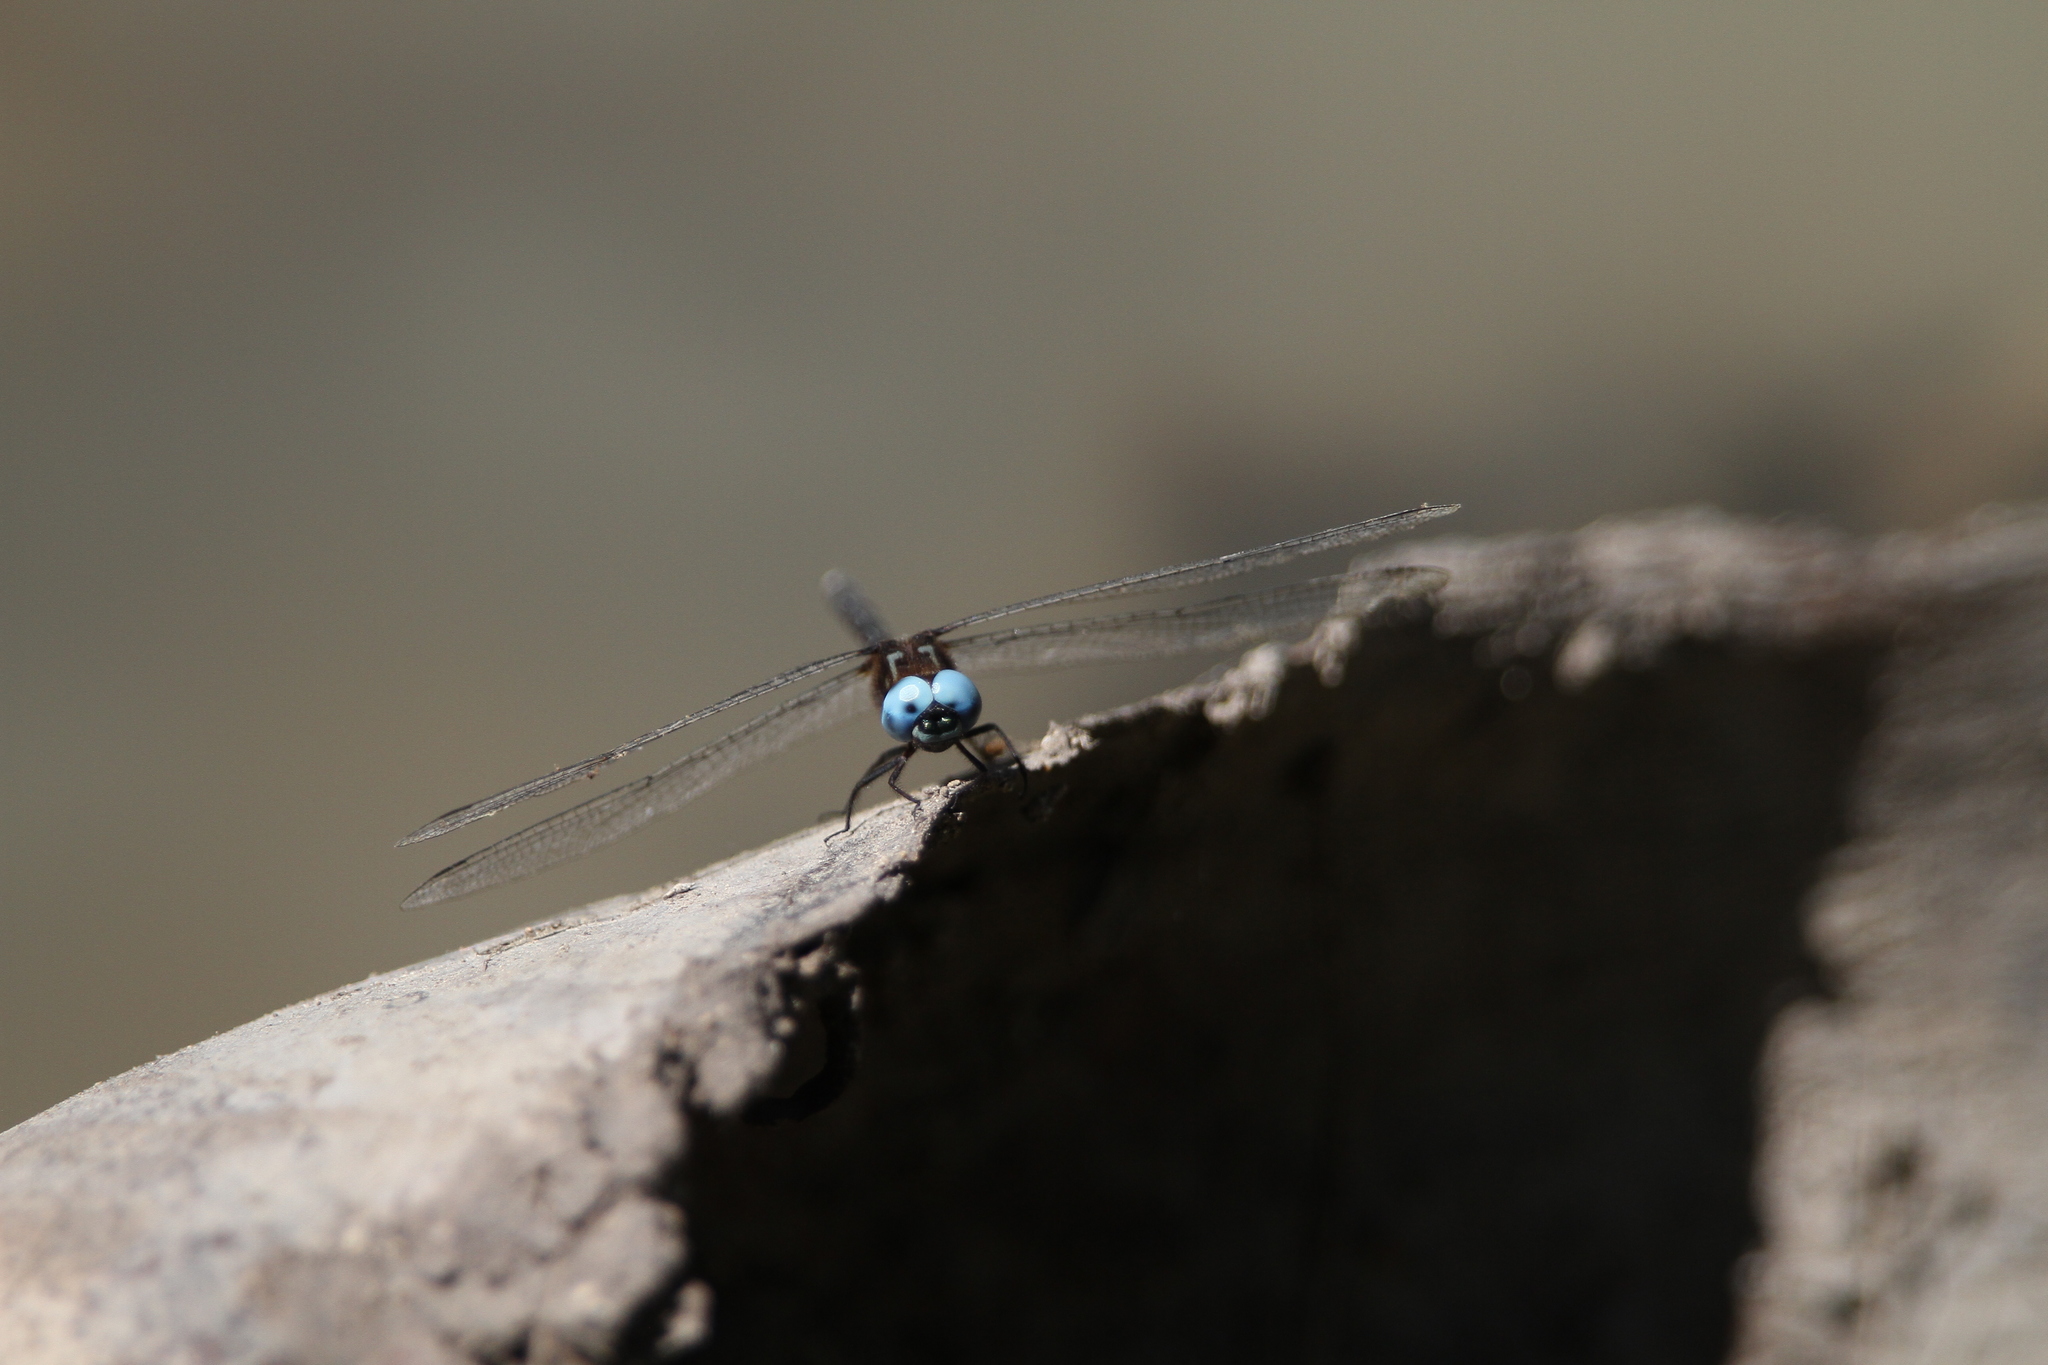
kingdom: Animalia
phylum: Arthropoda
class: Insecta
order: Odonata
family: Libellulidae
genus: Macrothemis
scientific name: Macrothemis celeno
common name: Antillean sylph
